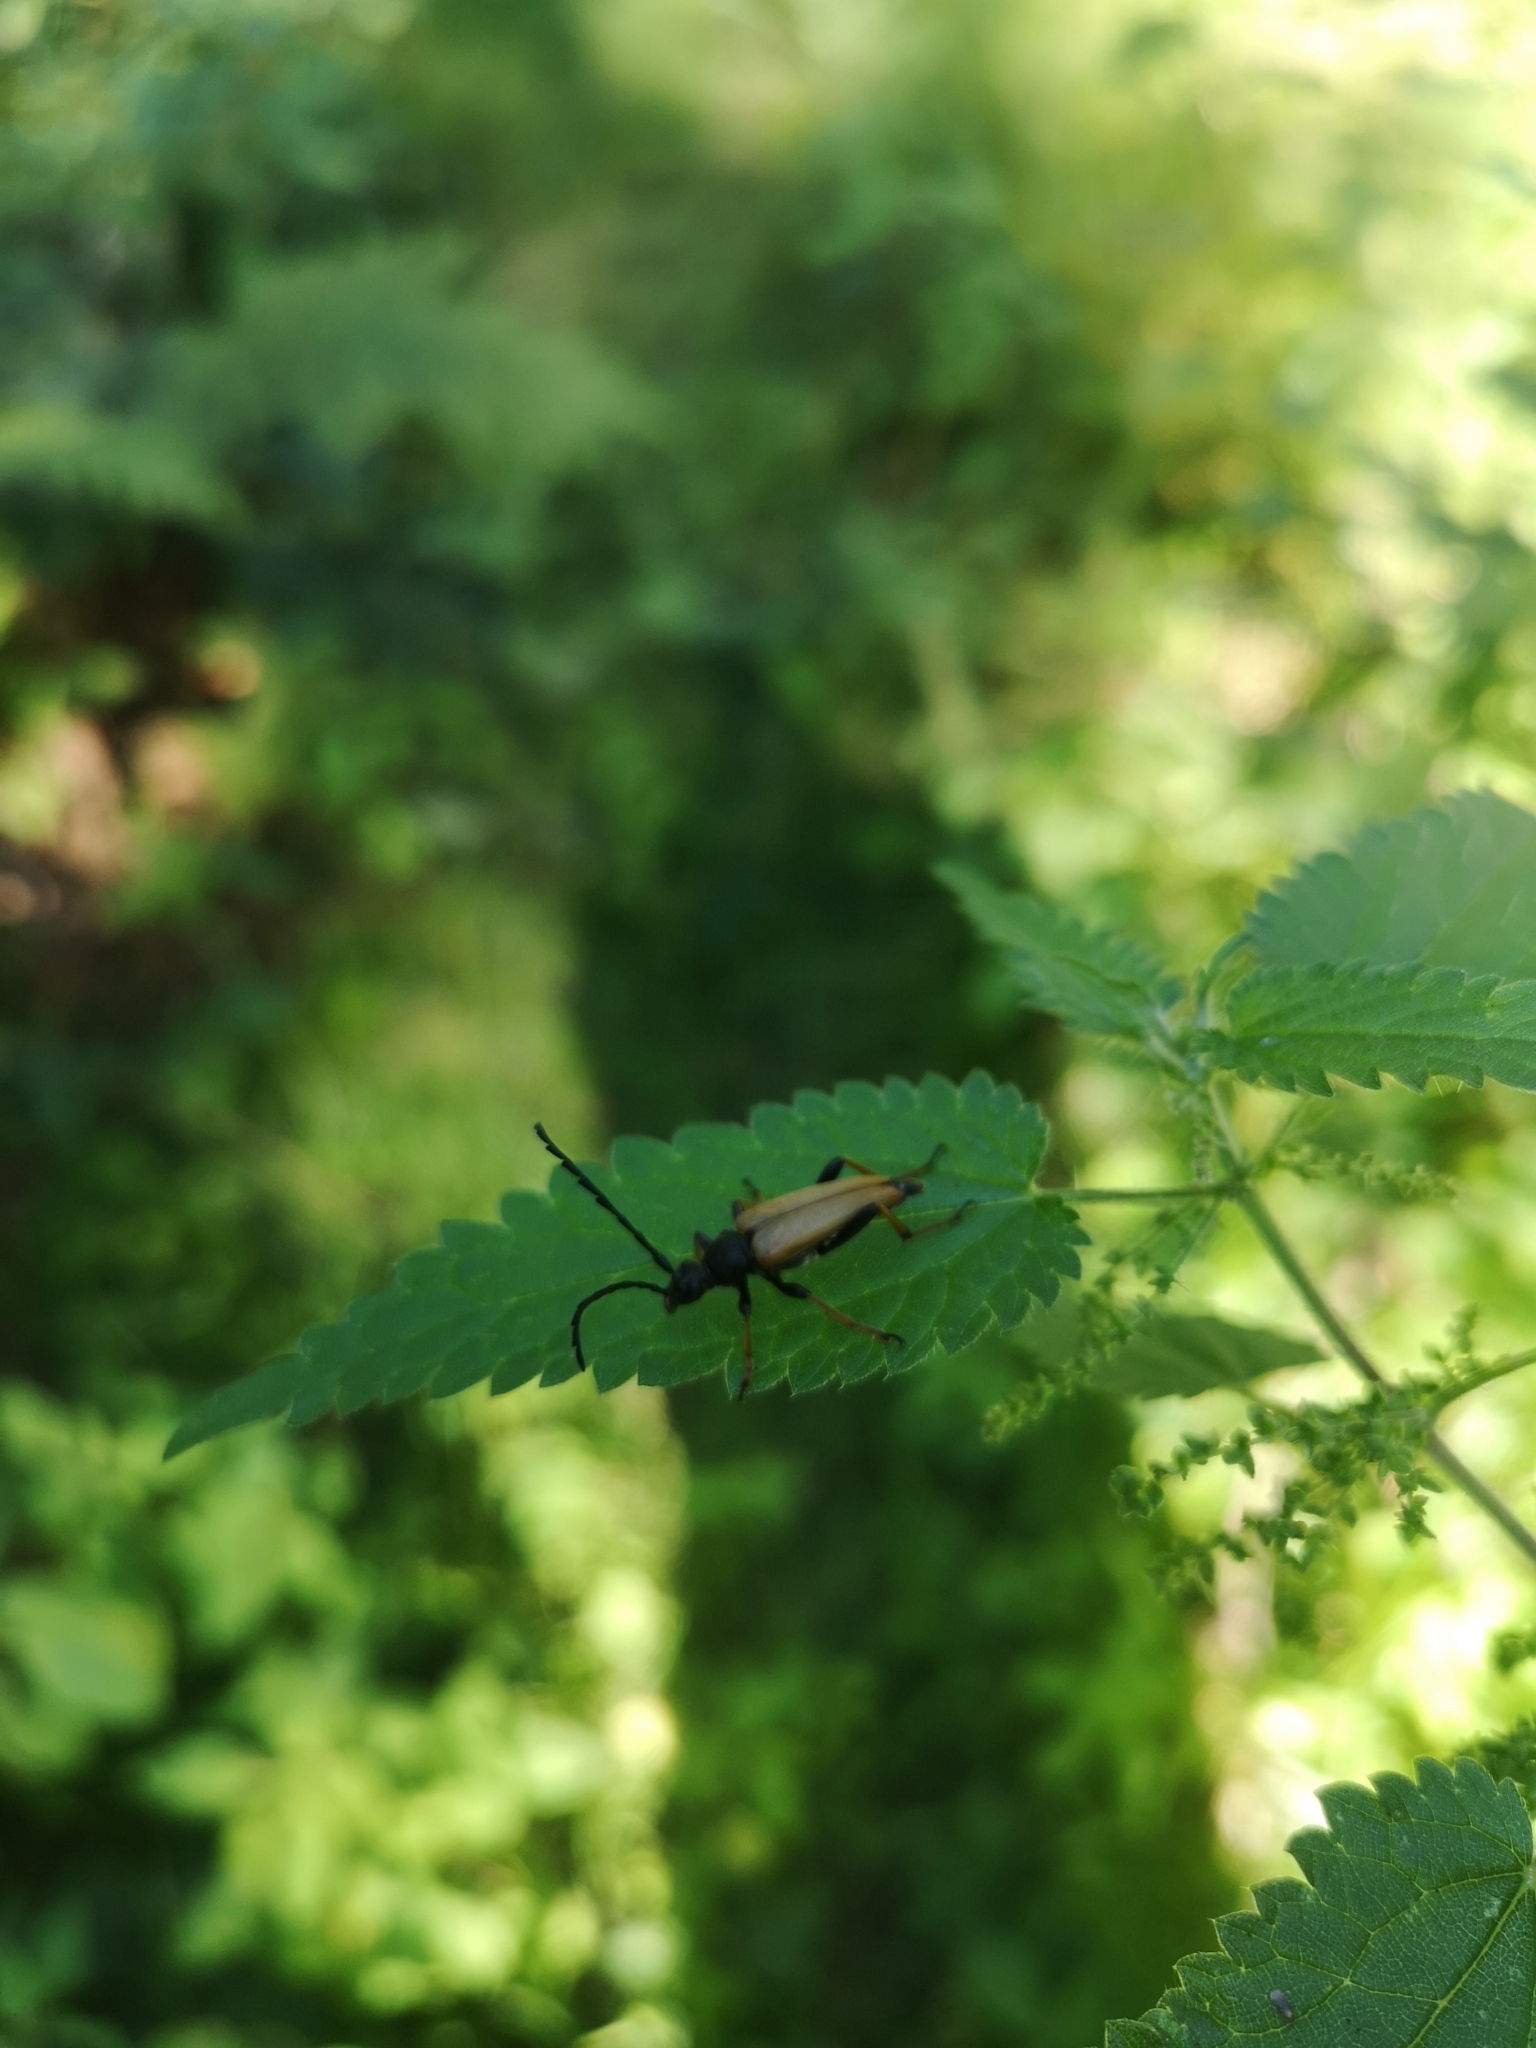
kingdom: Animalia
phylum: Arthropoda
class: Insecta
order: Coleoptera
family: Cerambycidae
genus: Stictoleptura
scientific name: Stictoleptura rubra
